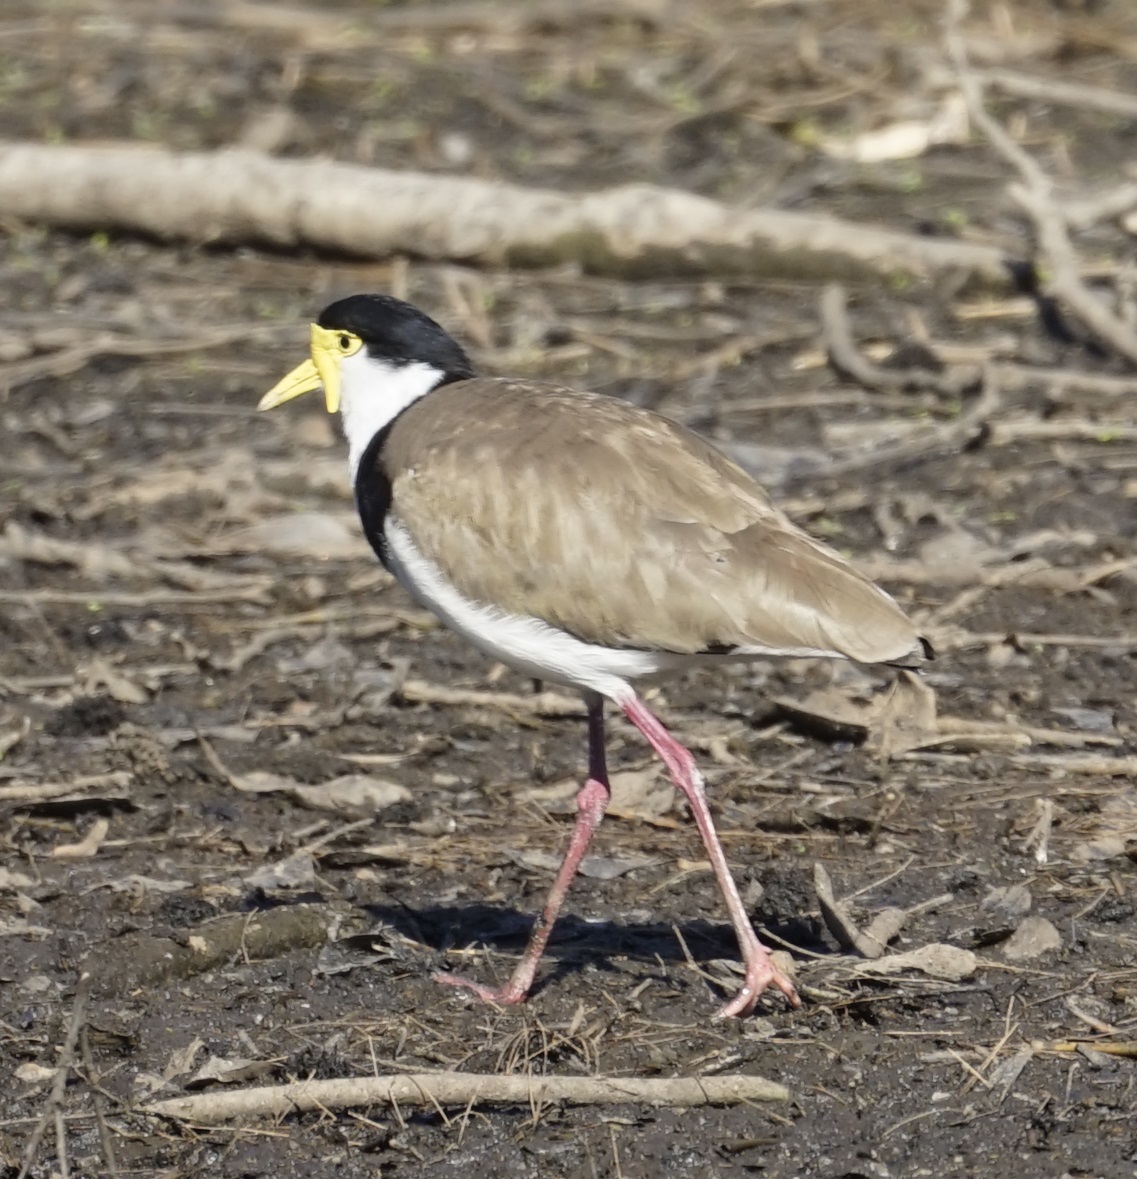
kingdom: Animalia
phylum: Chordata
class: Aves
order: Charadriiformes
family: Charadriidae
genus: Vanellus
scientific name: Vanellus miles
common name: Masked lapwing
